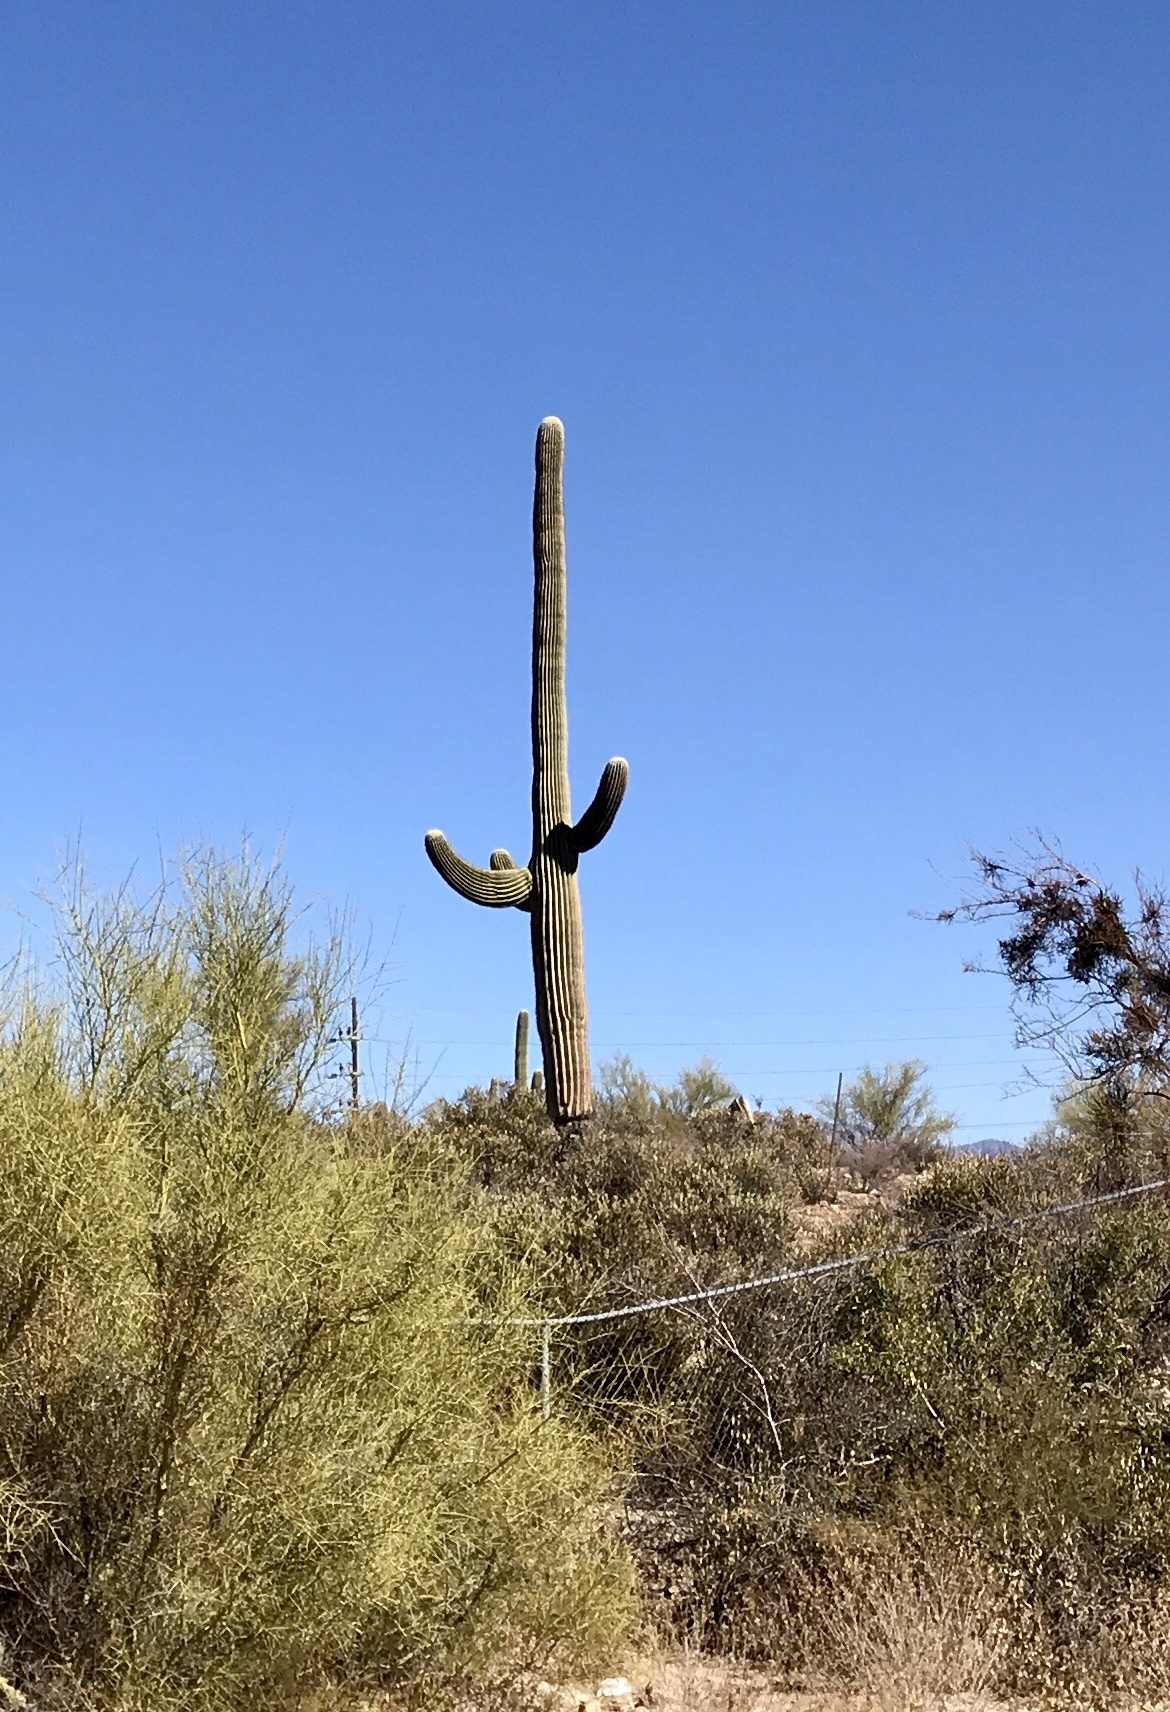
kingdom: Plantae
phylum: Tracheophyta
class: Magnoliopsida
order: Caryophyllales
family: Cactaceae
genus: Carnegiea
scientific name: Carnegiea gigantea
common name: Saguaro
